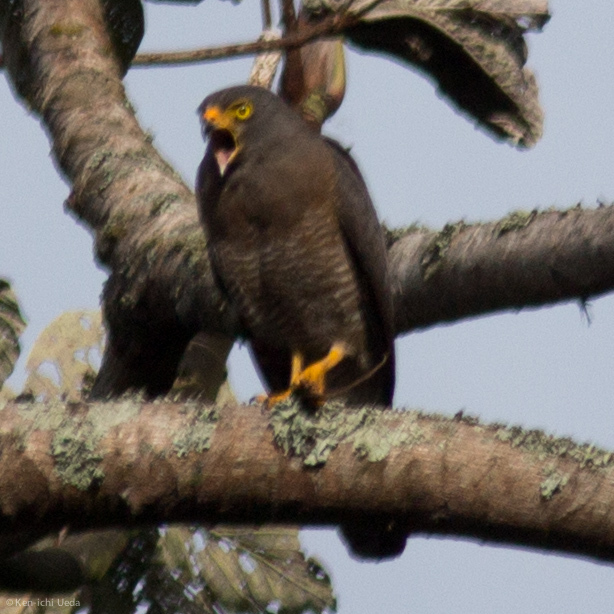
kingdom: Animalia
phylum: Chordata
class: Aves
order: Accipitriformes
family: Accipitridae
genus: Rupornis
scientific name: Rupornis magnirostris
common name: Roadside hawk
